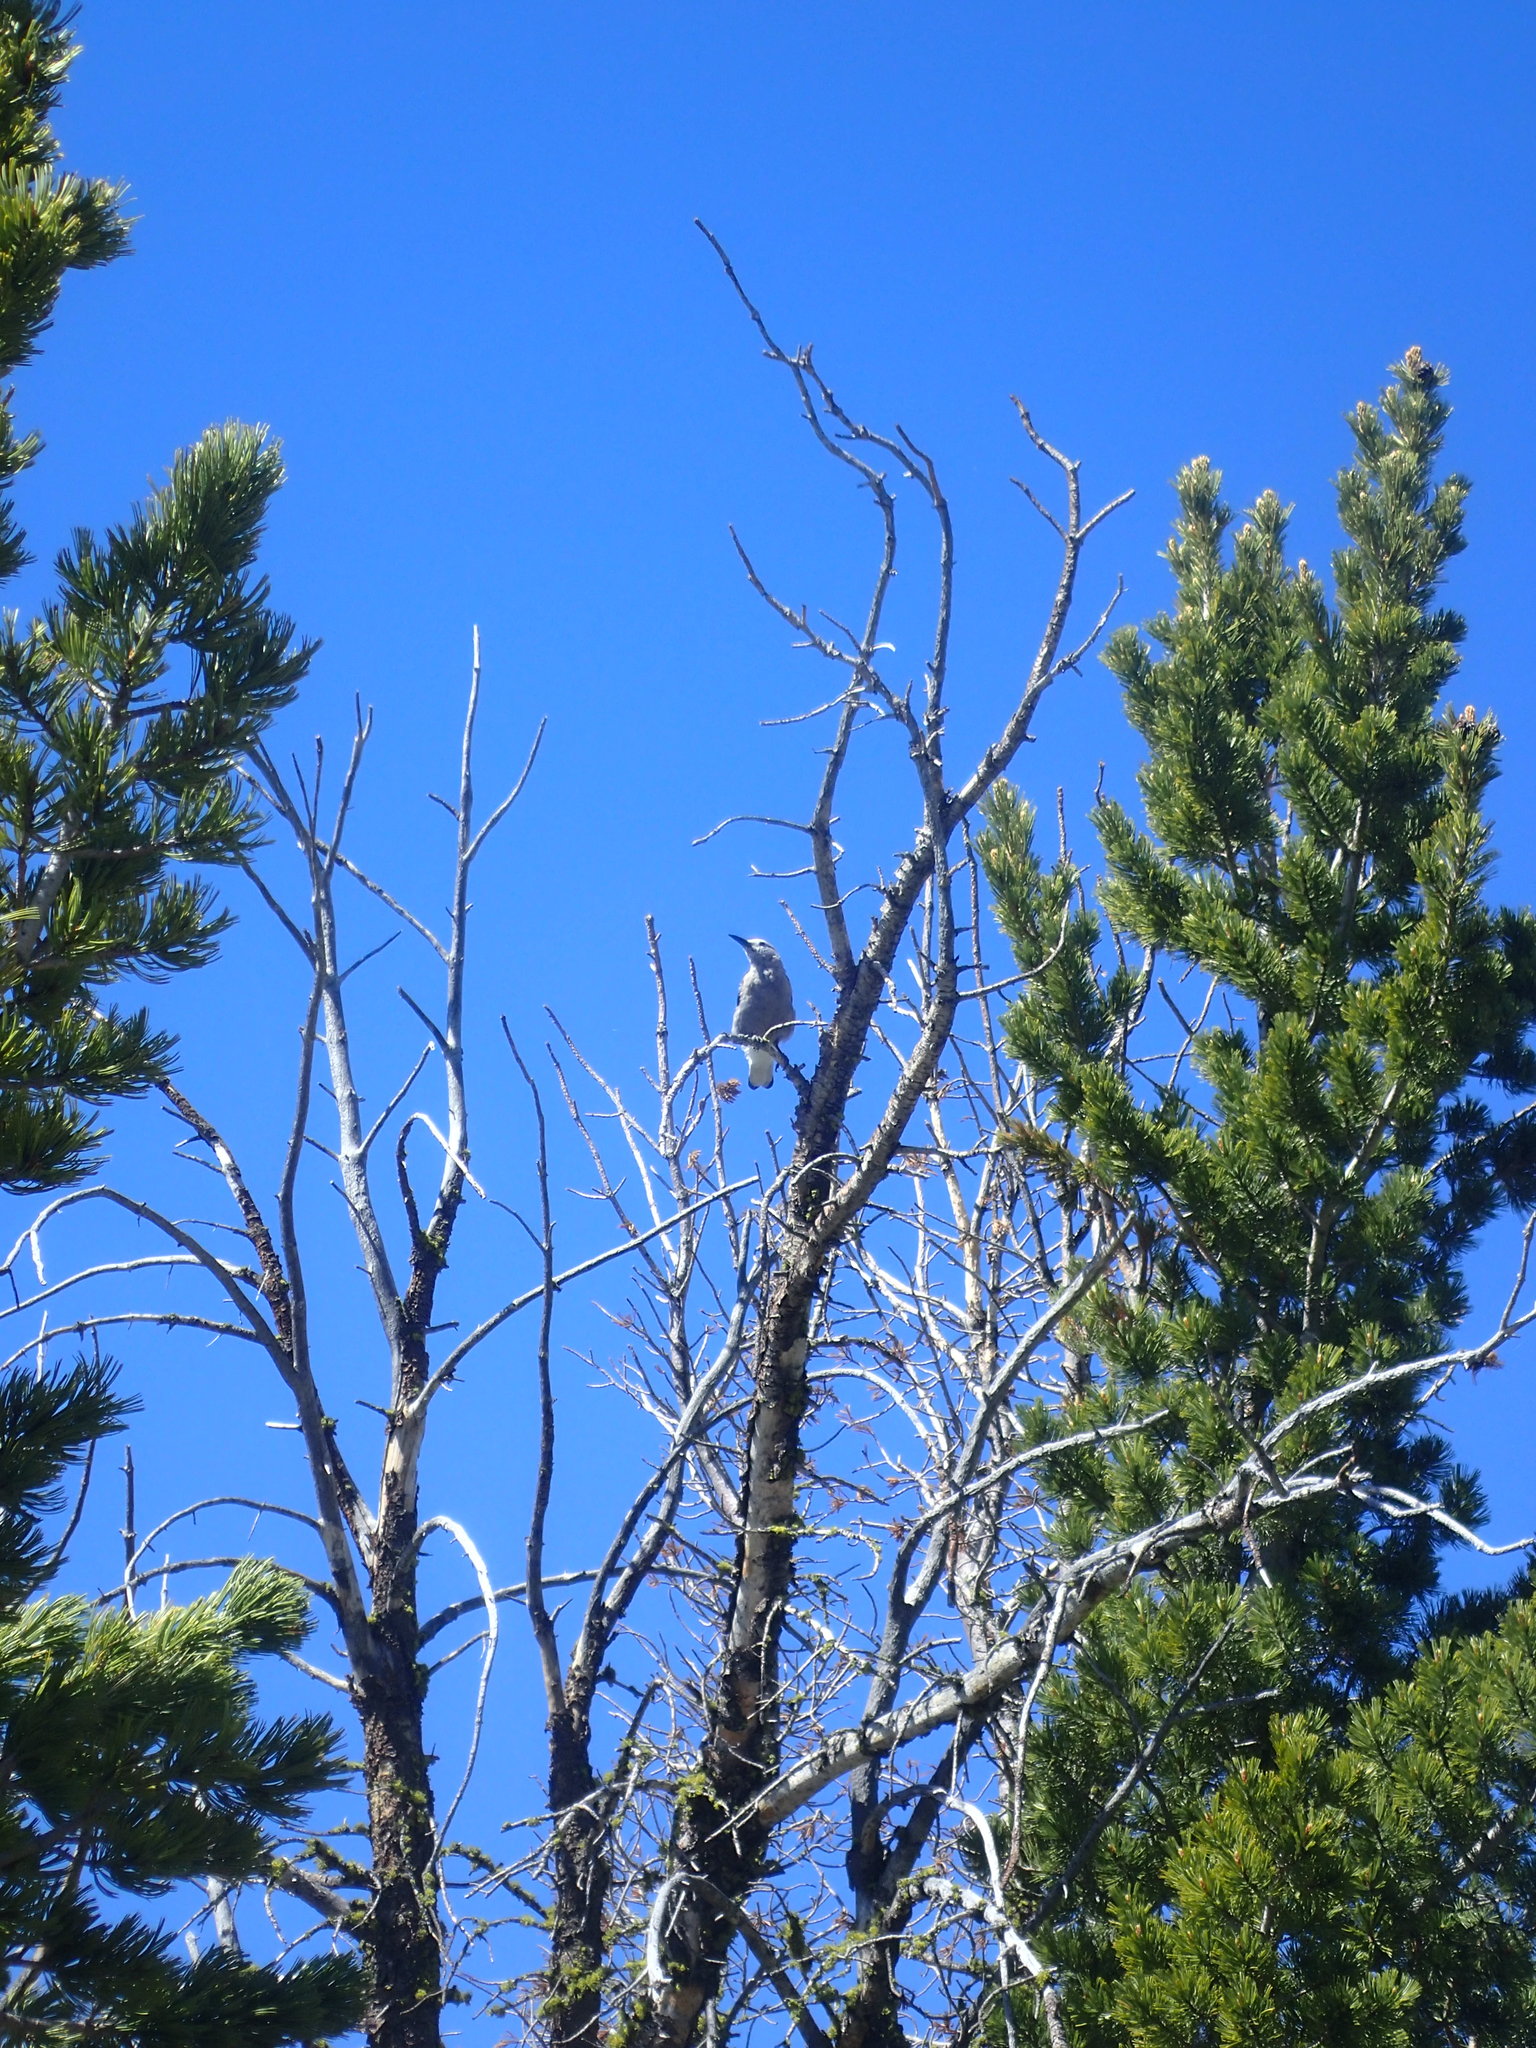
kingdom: Animalia
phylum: Chordata
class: Aves
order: Passeriformes
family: Corvidae
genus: Nucifraga
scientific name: Nucifraga columbiana
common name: Clark's nutcracker
